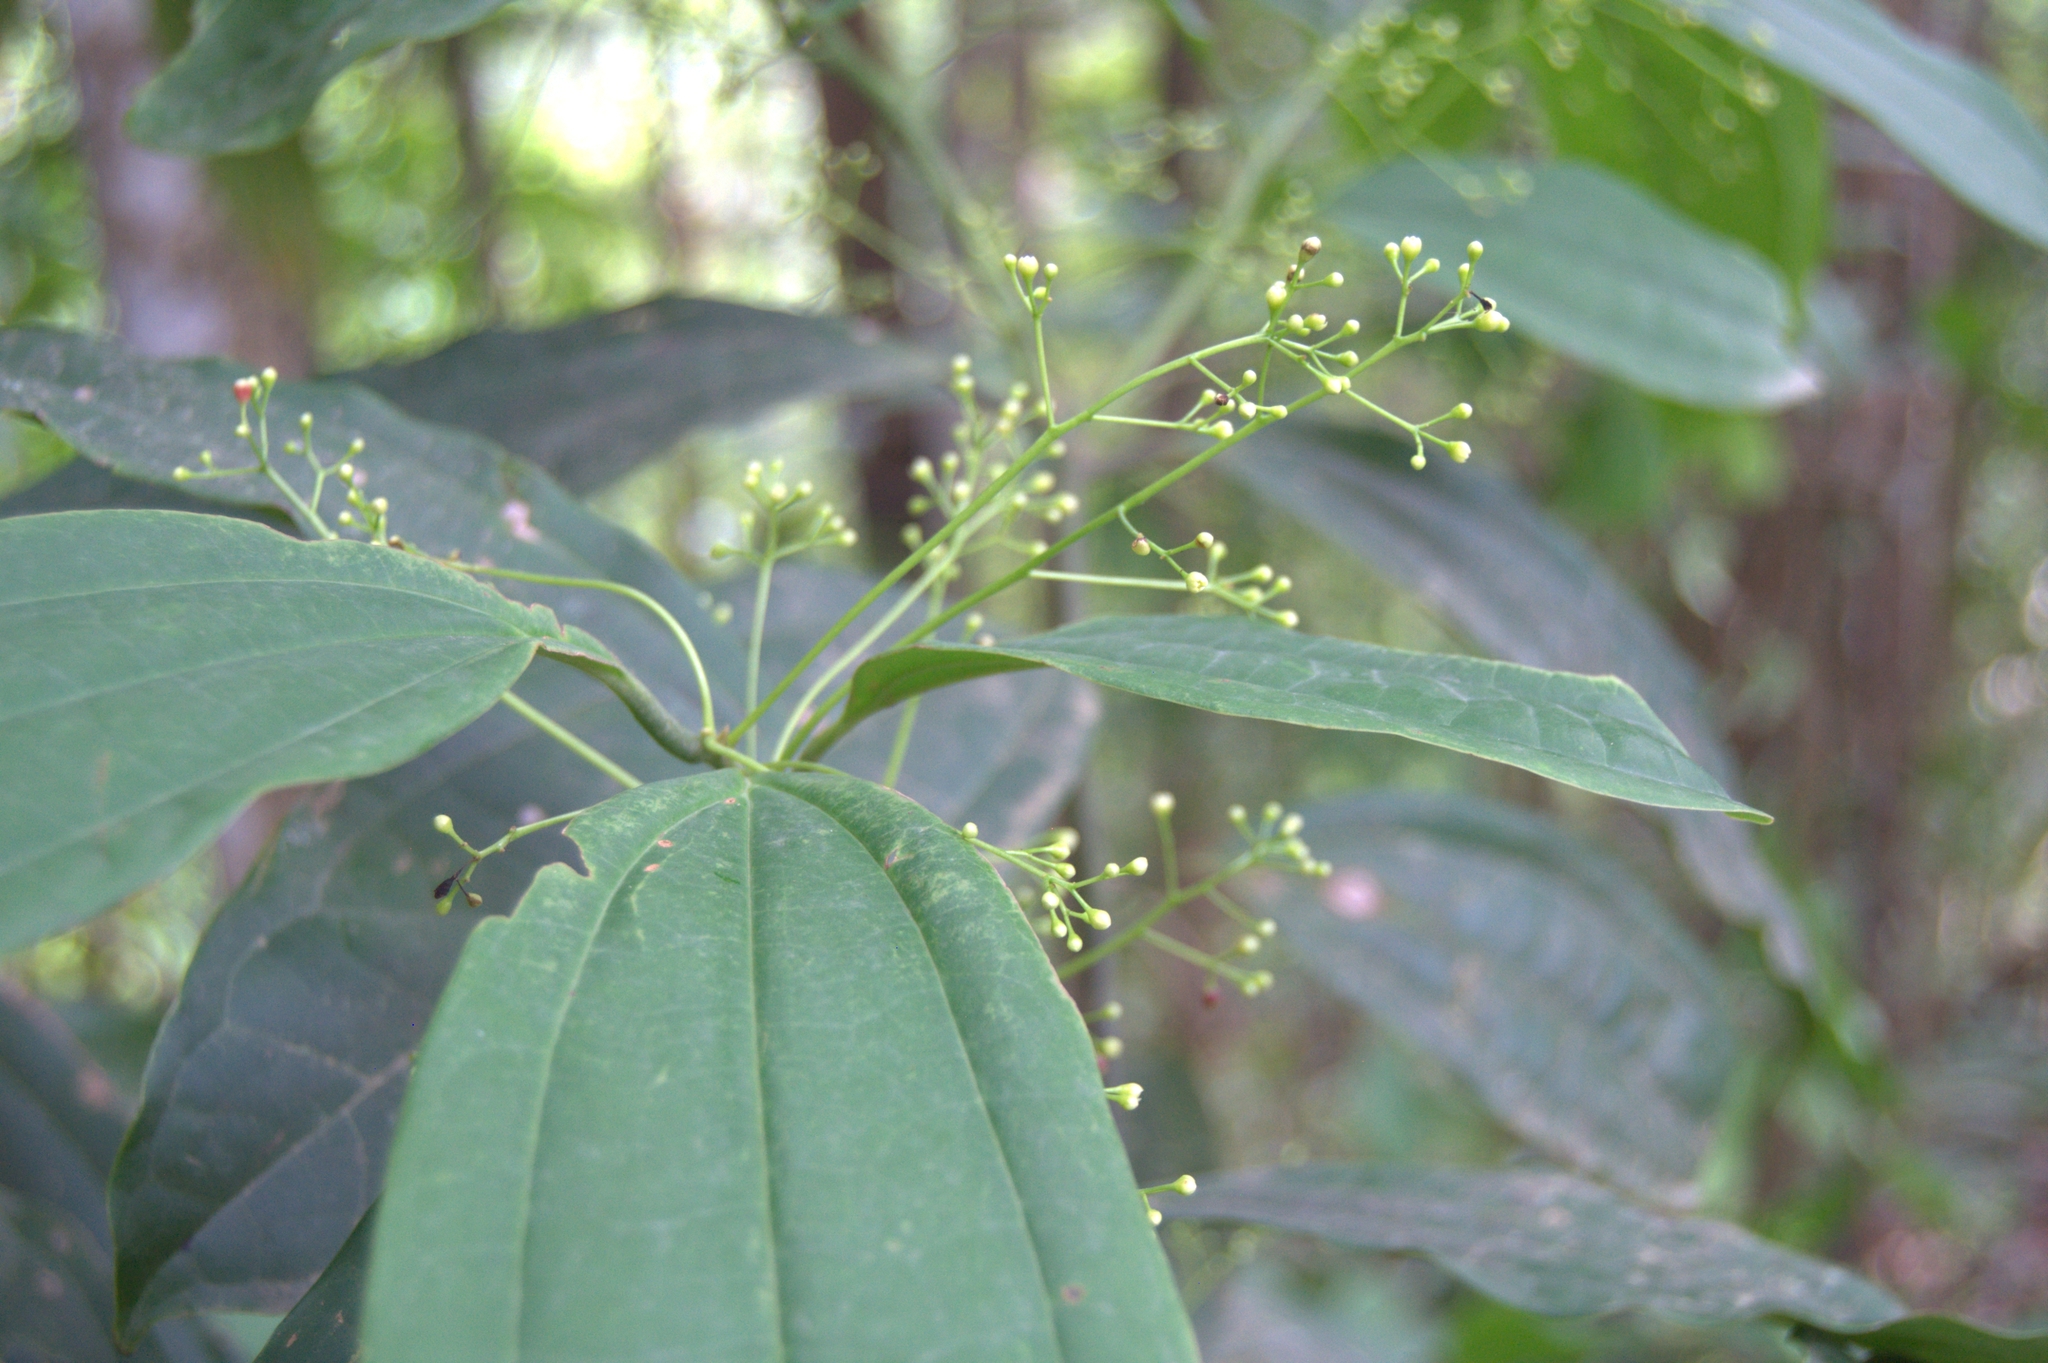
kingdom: Plantae
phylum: Tracheophyta
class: Magnoliopsida
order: Laurales
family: Lauraceae
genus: Aiouea
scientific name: Aiouea neurophylla
